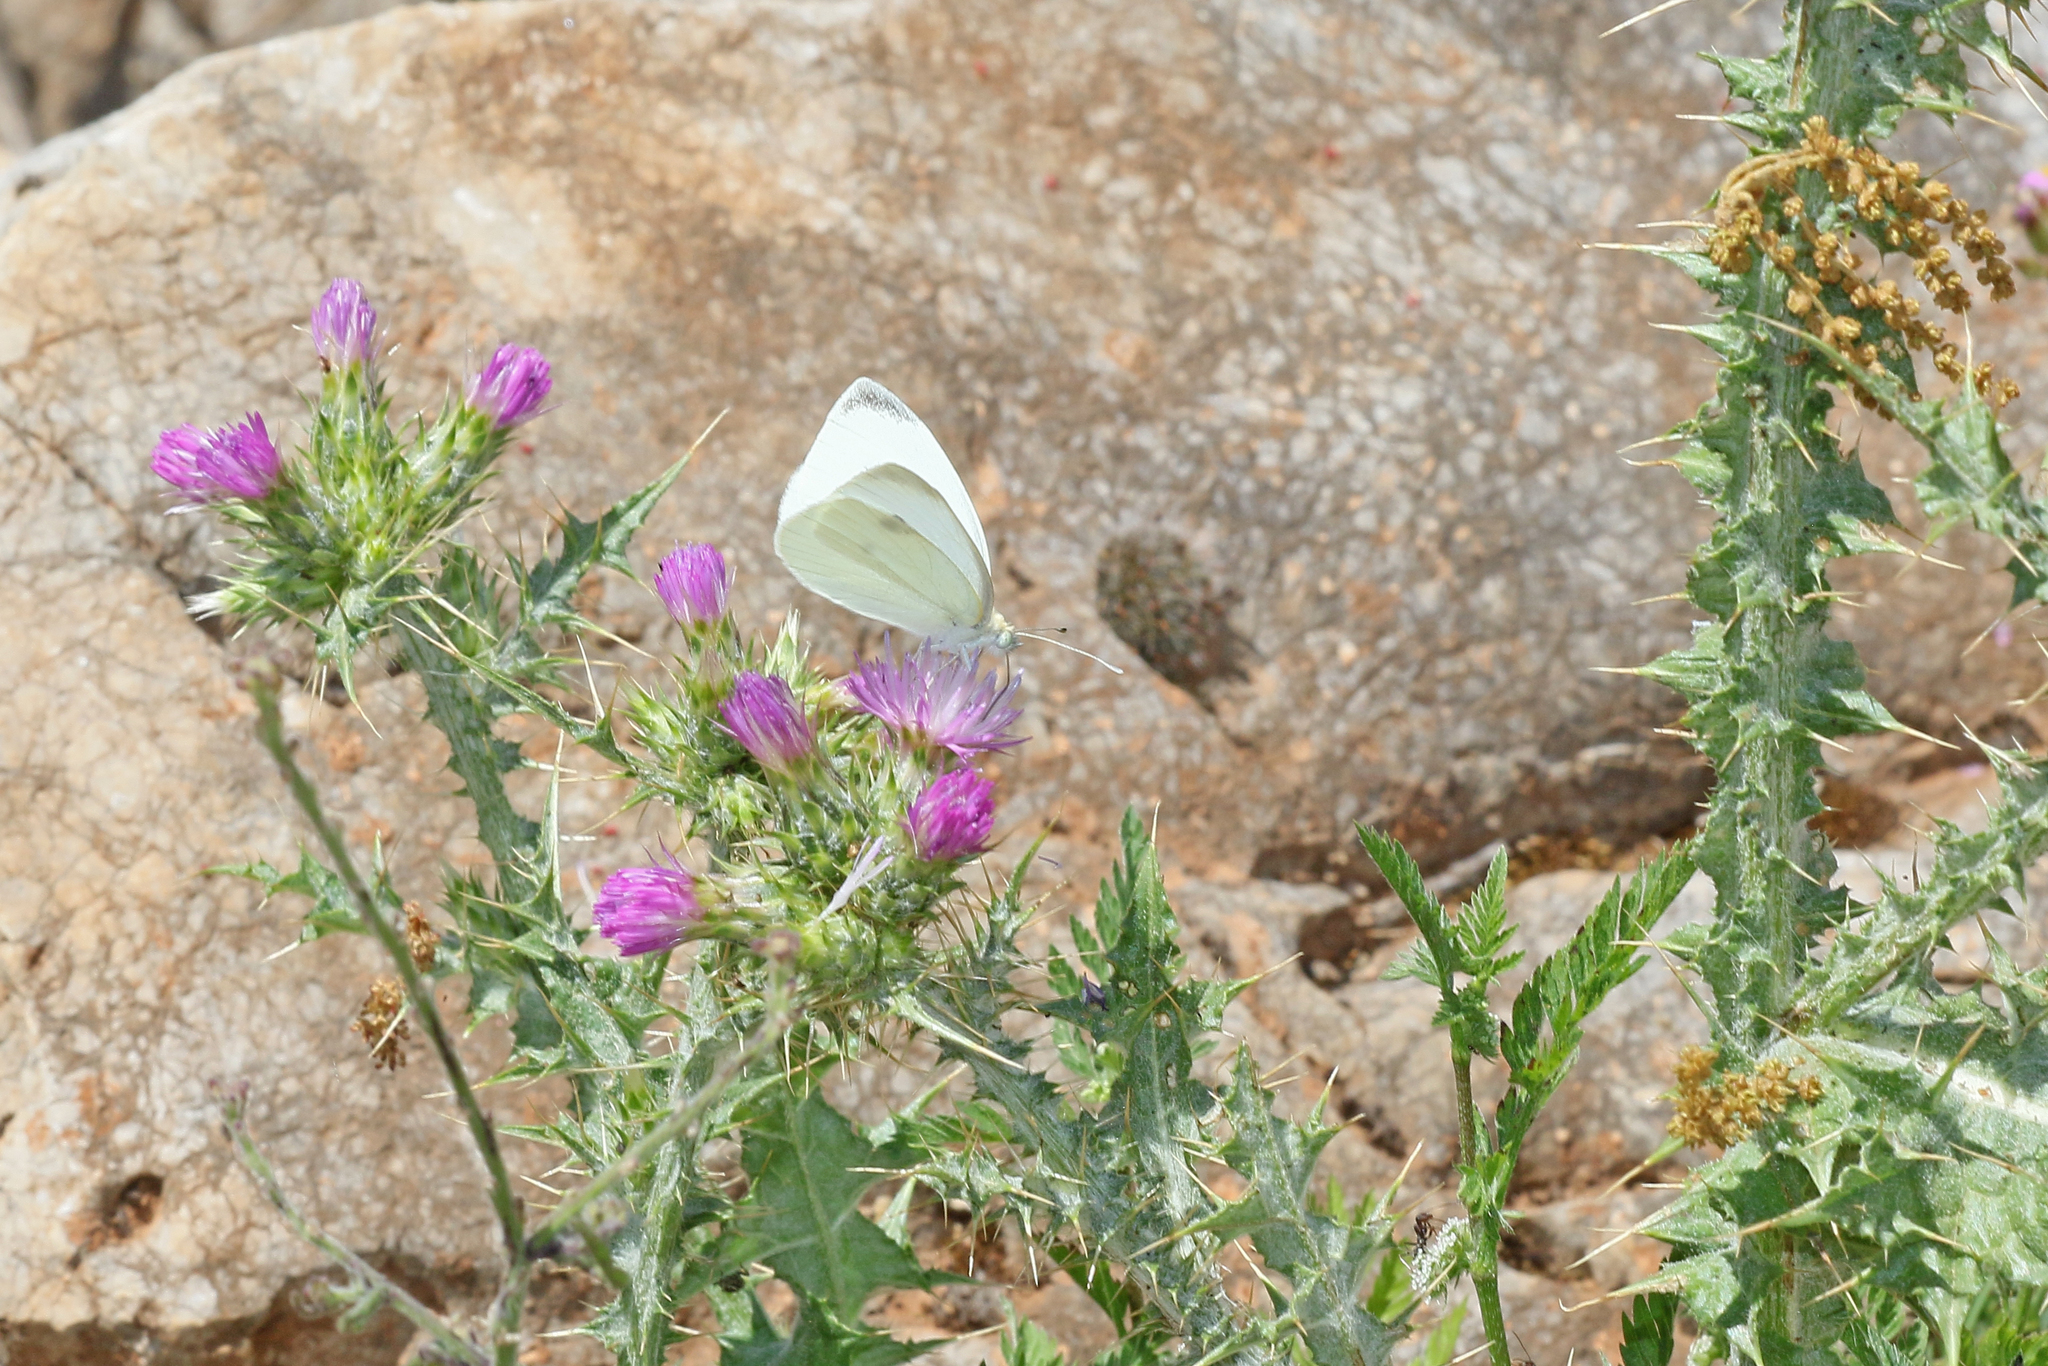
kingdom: Animalia
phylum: Arthropoda
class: Insecta
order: Lepidoptera
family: Pieridae
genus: Pieris
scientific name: Pieris rapae
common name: Small white
